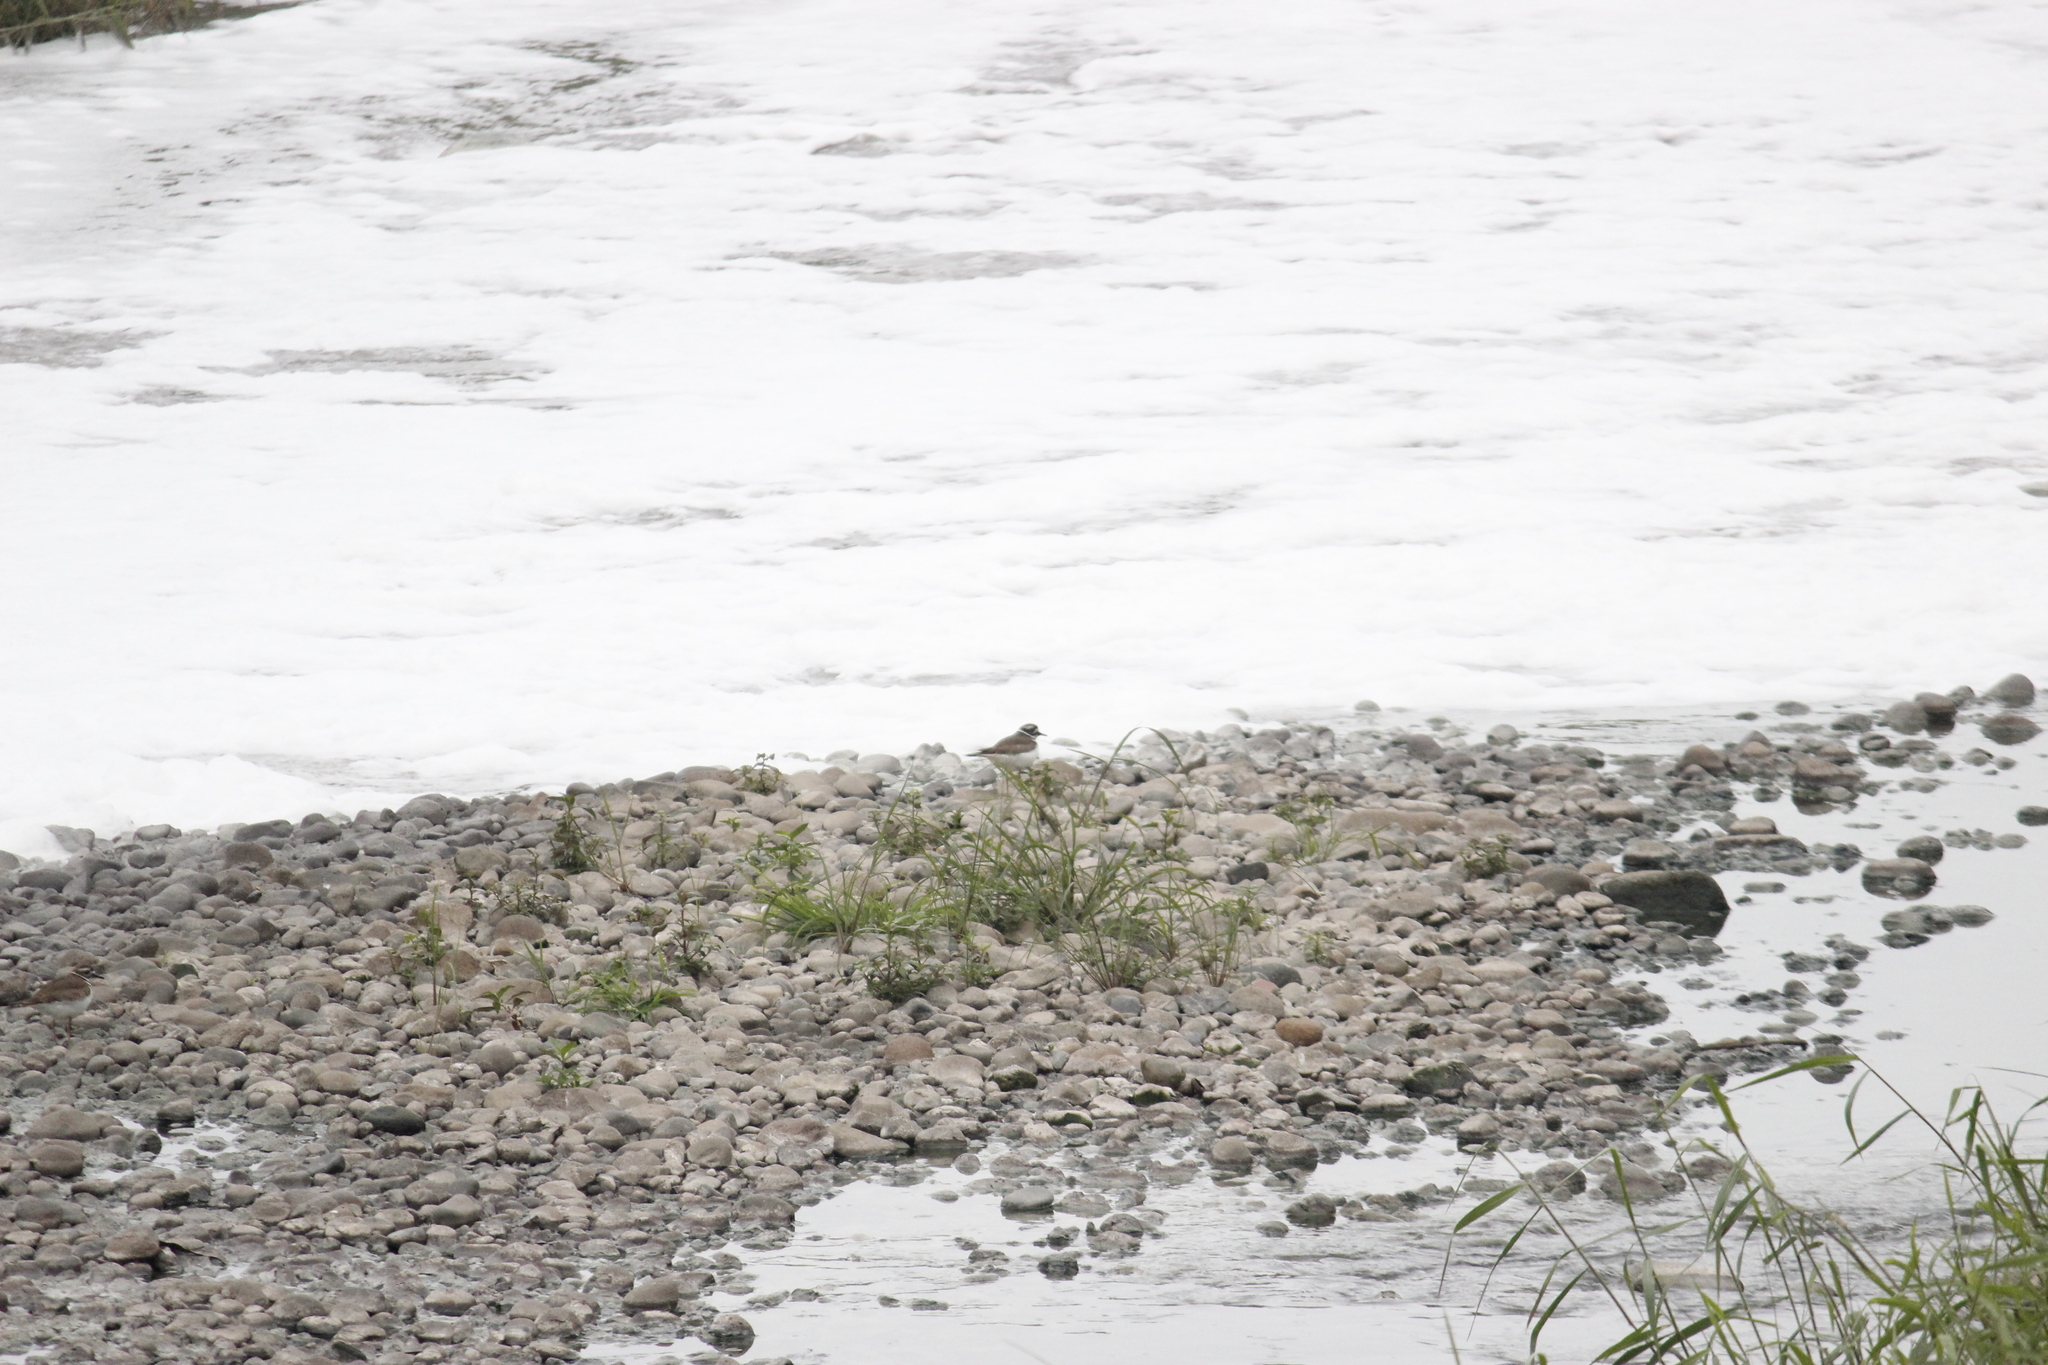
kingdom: Animalia
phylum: Chordata
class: Aves
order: Charadriiformes
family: Charadriidae
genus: Charadrius
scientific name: Charadrius vociferus
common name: Killdeer
